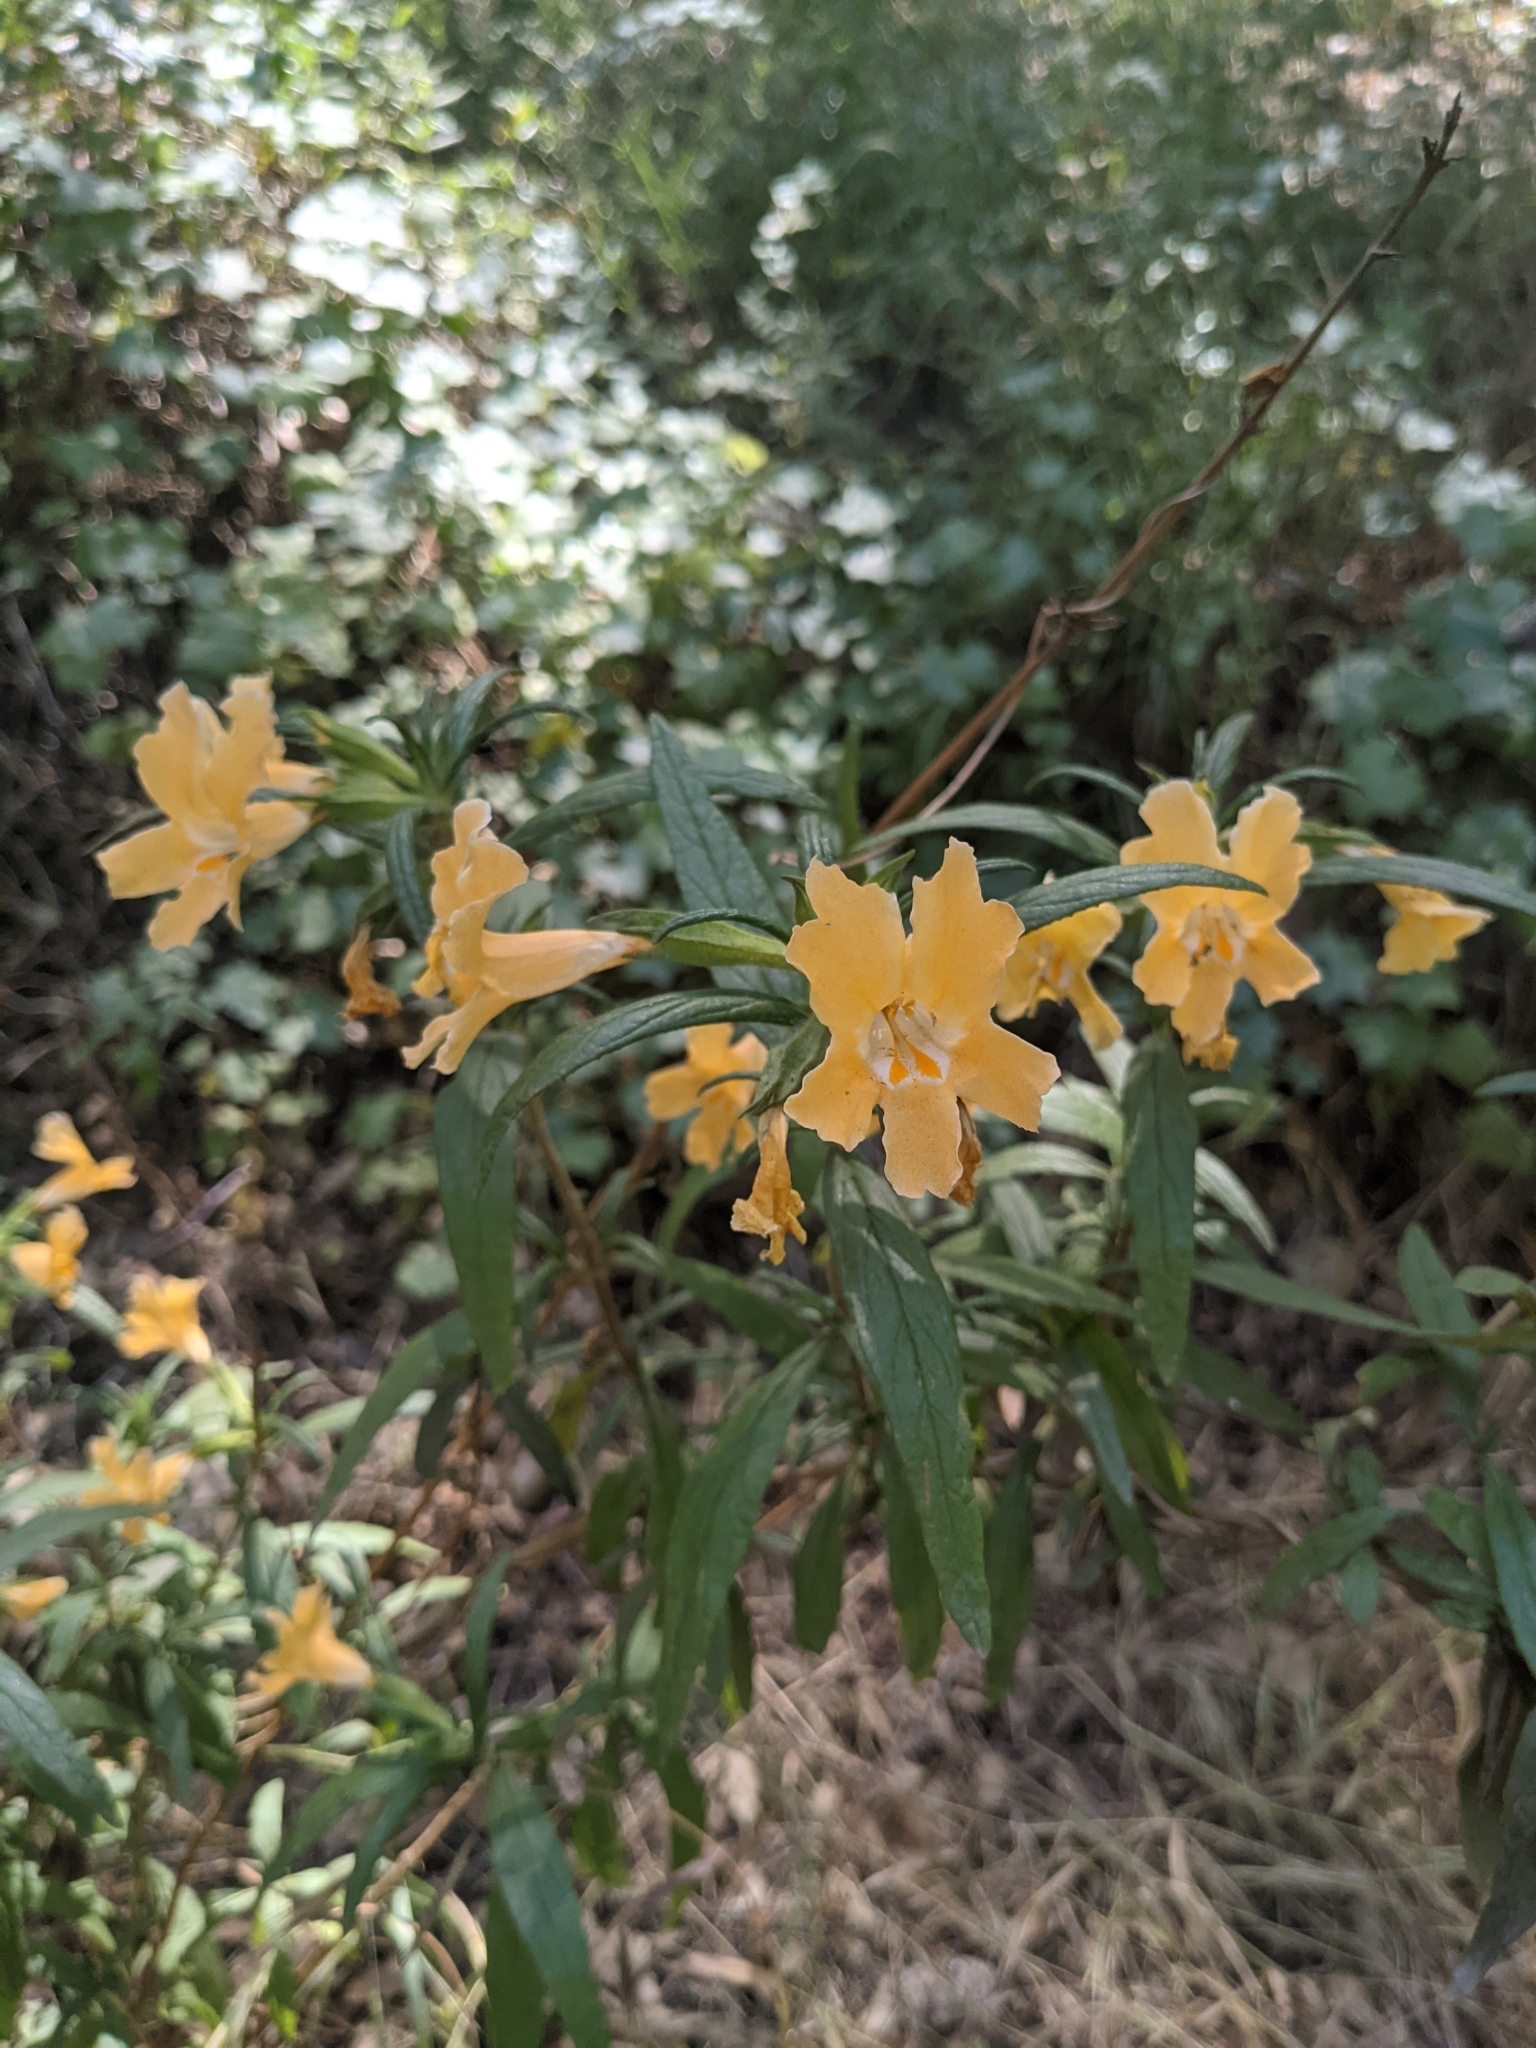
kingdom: Plantae
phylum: Tracheophyta
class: Magnoliopsida
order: Lamiales
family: Phrymaceae
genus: Diplacus
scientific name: Diplacus longiflorus
